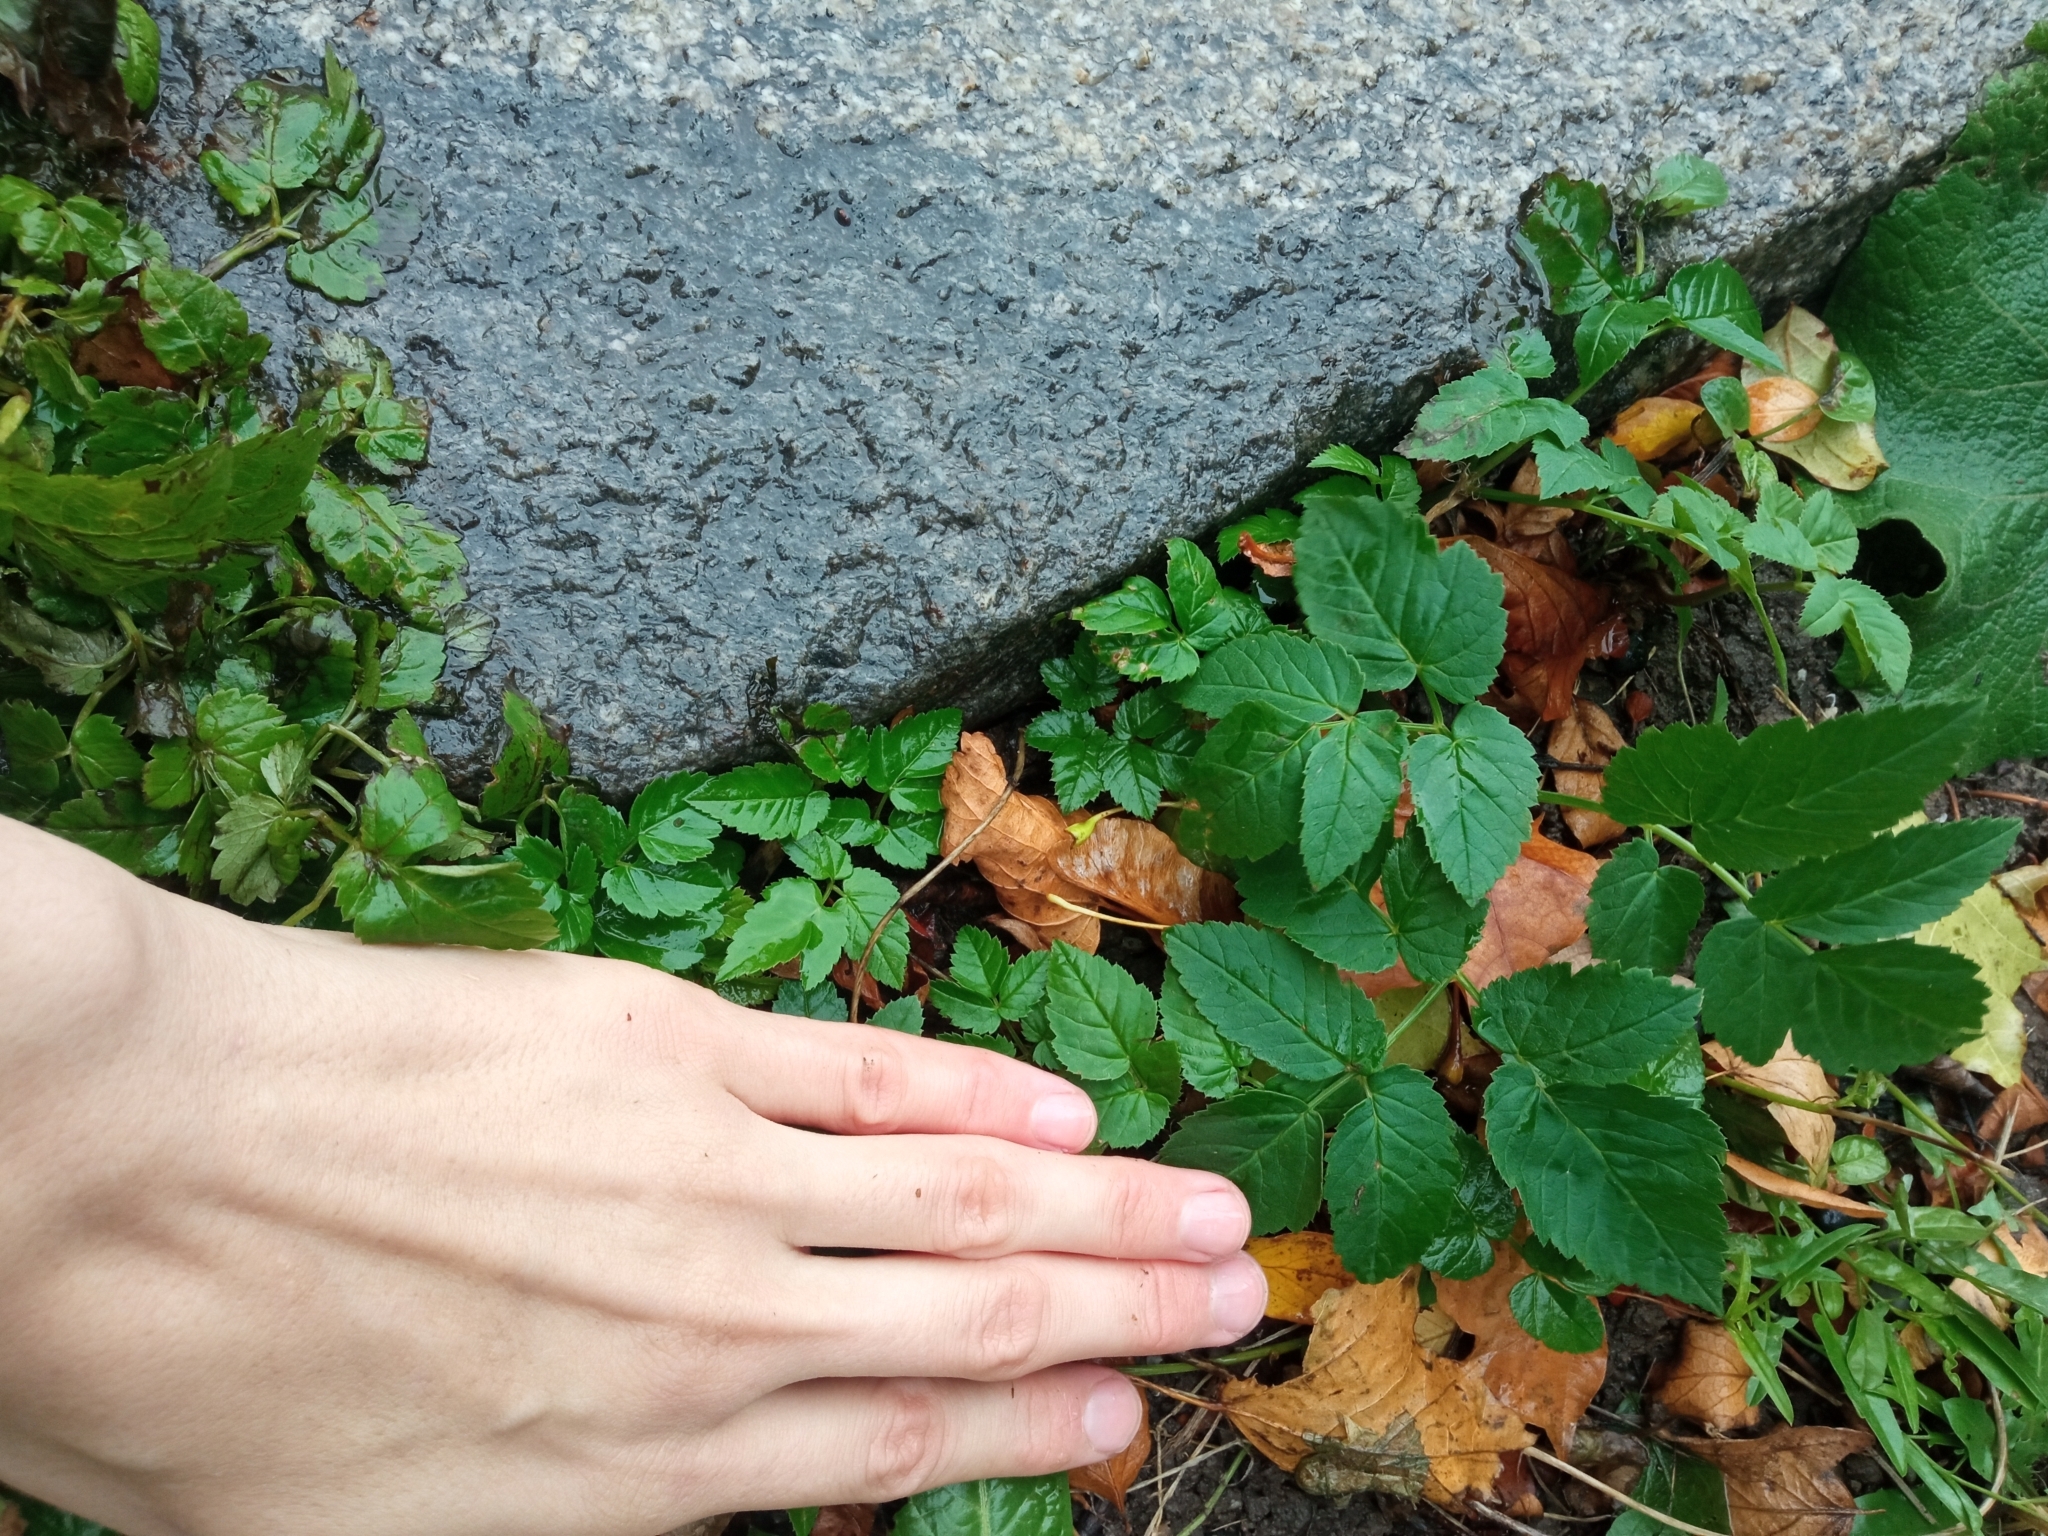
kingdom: Plantae
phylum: Tracheophyta
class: Magnoliopsida
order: Apiales
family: Apiaceae
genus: Aegopodium
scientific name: Aegopodium podagraria
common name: Ground-elder
